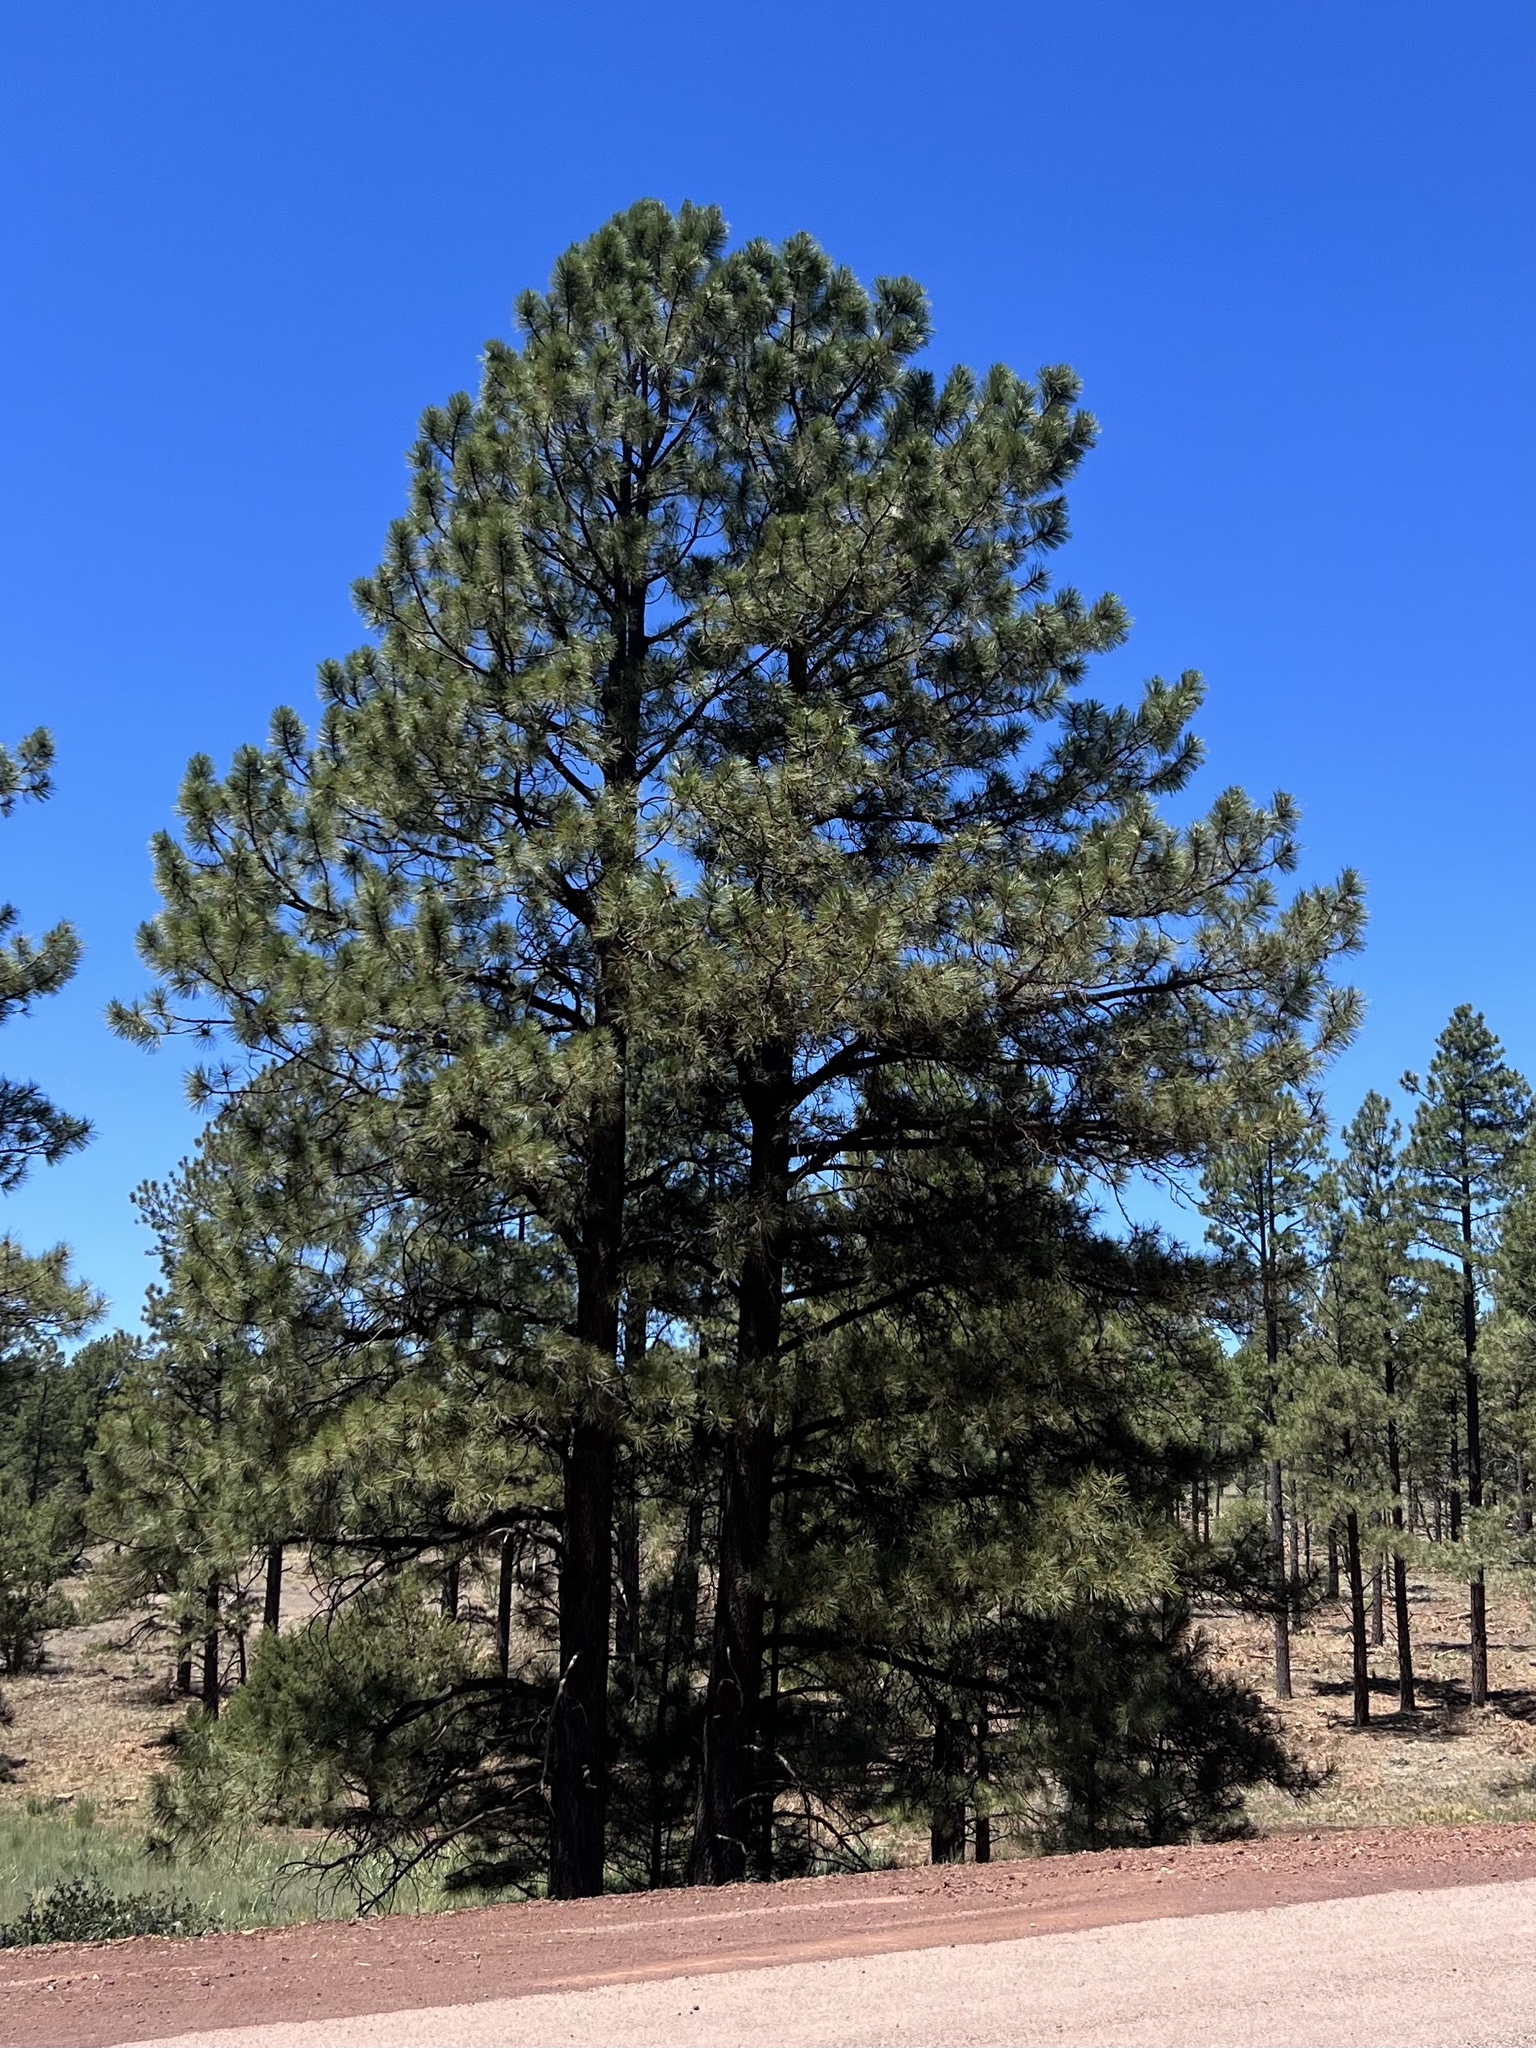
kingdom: Plantae
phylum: Tracheophyta
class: Pinopsida
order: Pinales
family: Pinaceae
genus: Pinus
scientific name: Pinus ponderosa
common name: Western yellow-pine
